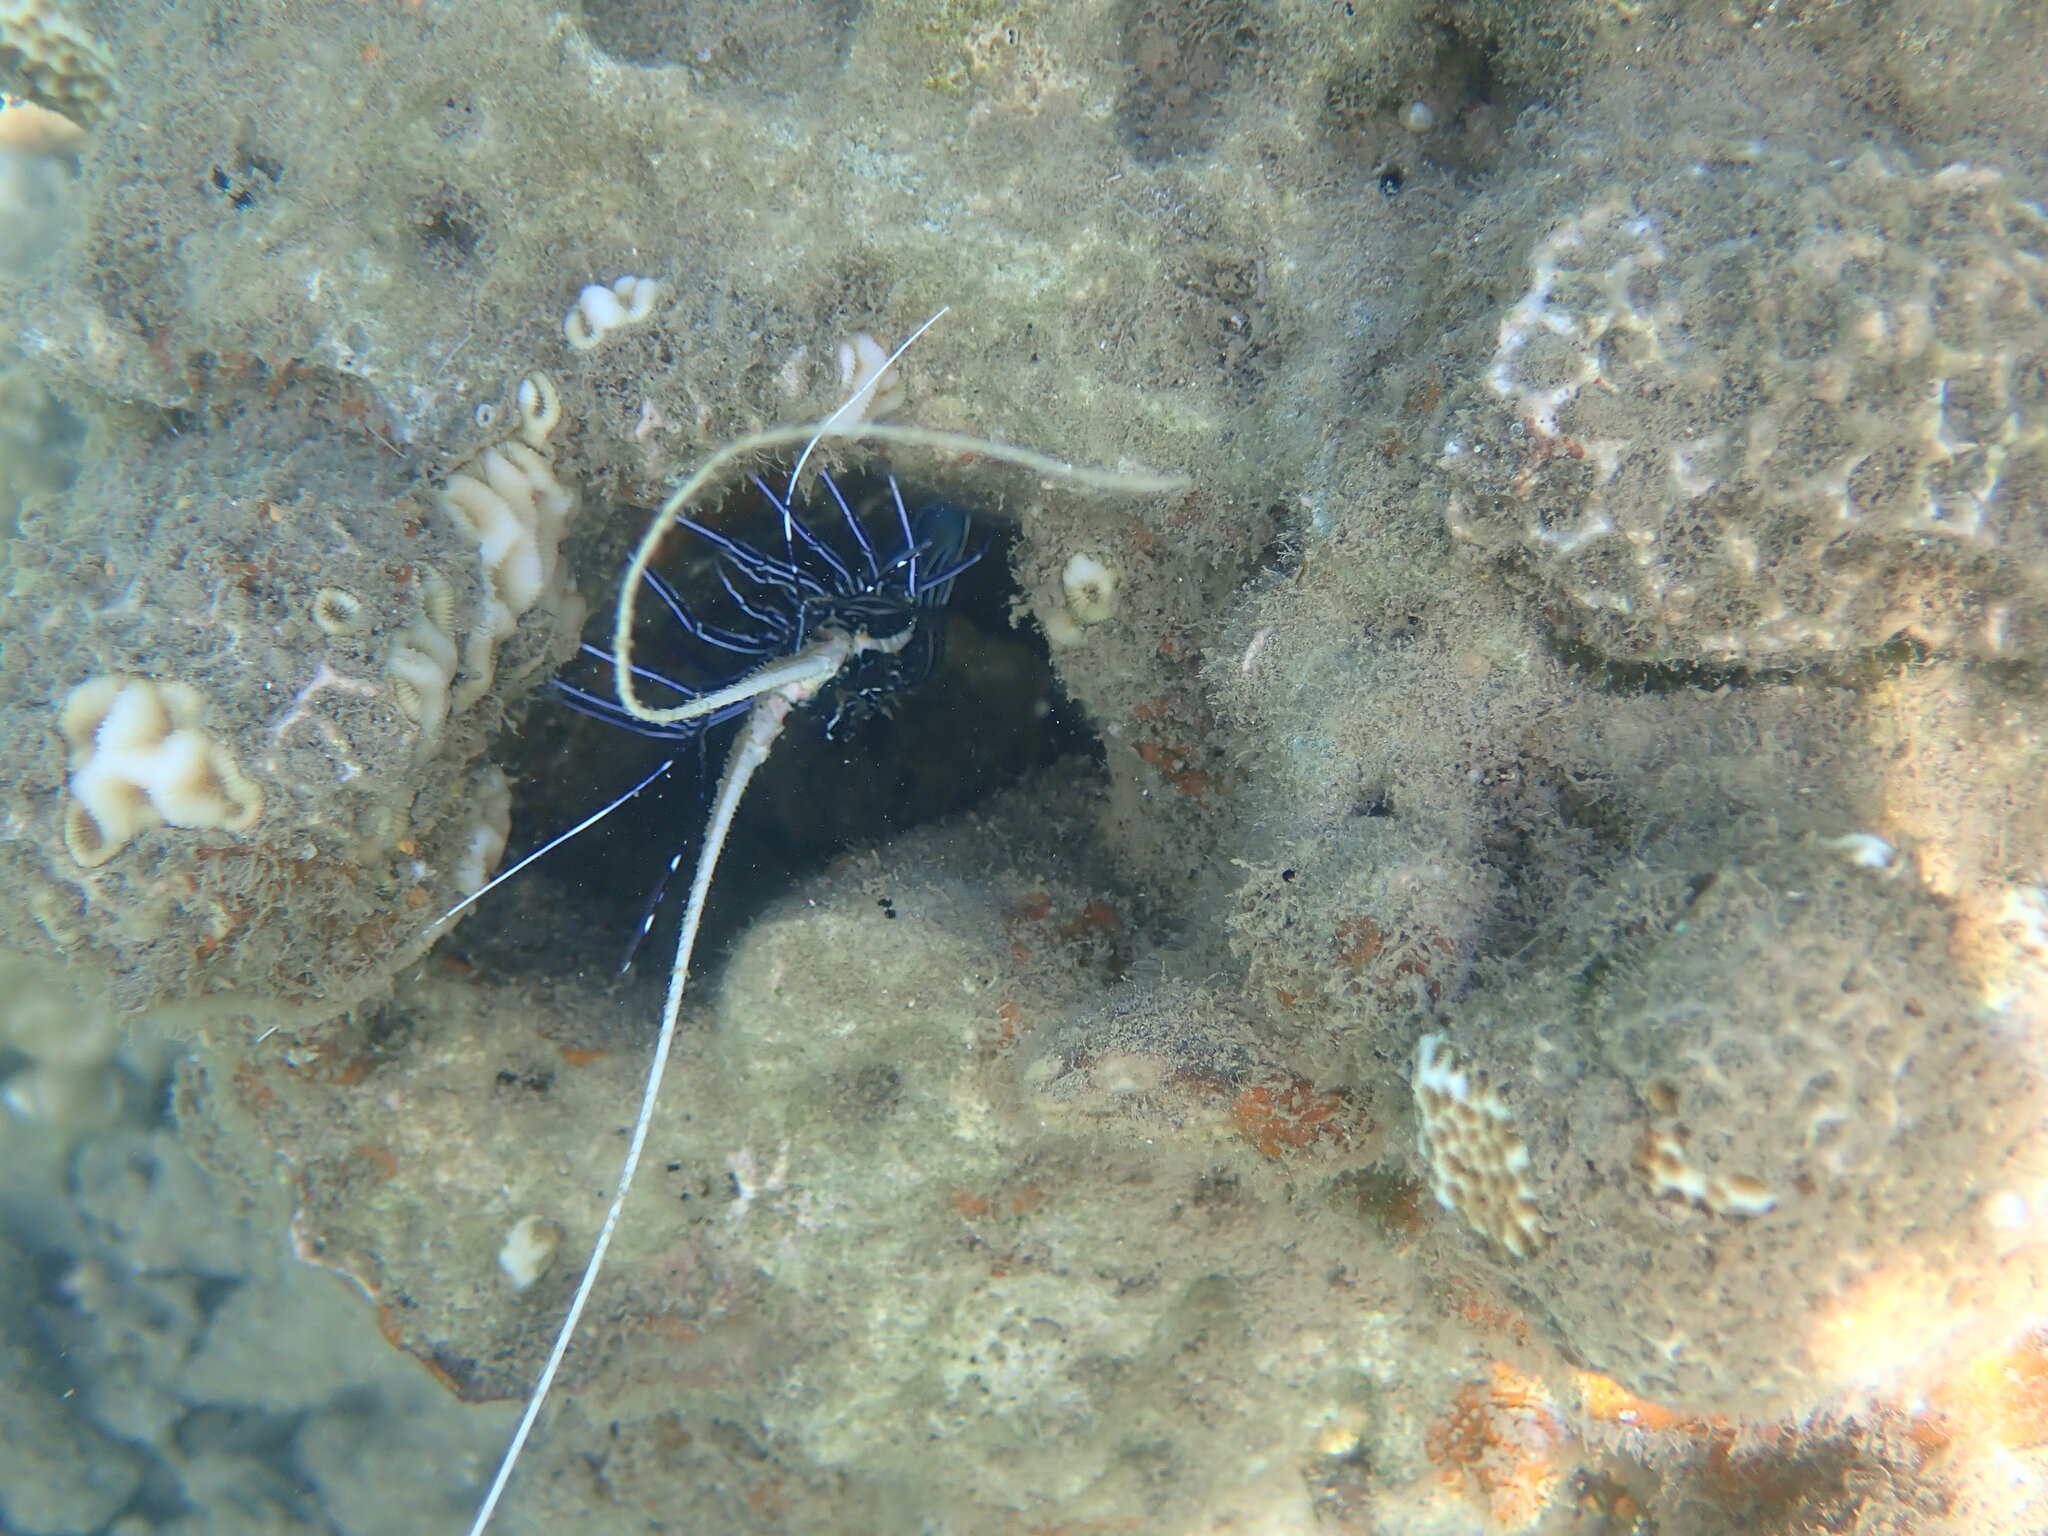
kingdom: Animalia
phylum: Arthropoda
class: Malacostraca
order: Decapoda
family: Palinuridae
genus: Panulirus
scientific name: Panulirus versicolor
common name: Painted spiny lobster
